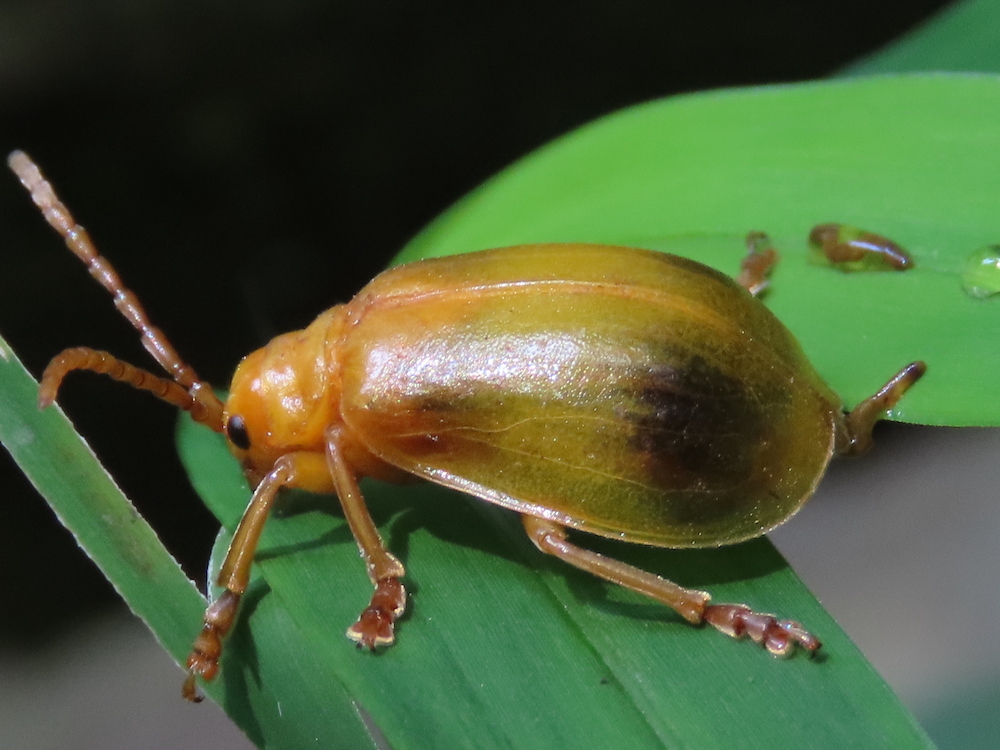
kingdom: Animalia
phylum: Arthropoda
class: Insecta
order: Coleoptera
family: Chrysomelidae
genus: Monocesta
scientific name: Monocesta coryli
